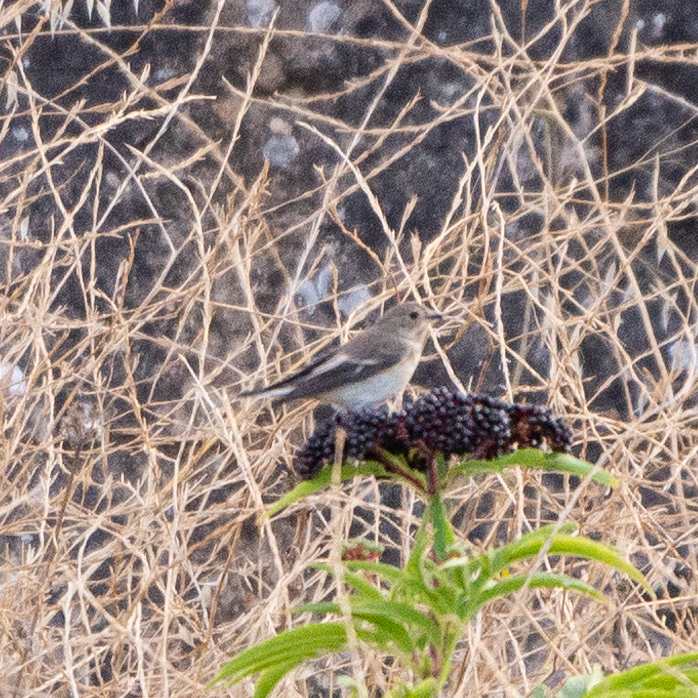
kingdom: Animalia
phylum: Chordata
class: Aves
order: Passeriformes
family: Muscicapidae
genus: Ficedula
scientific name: Ficedula hypoleuca
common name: European pied flycatcher
